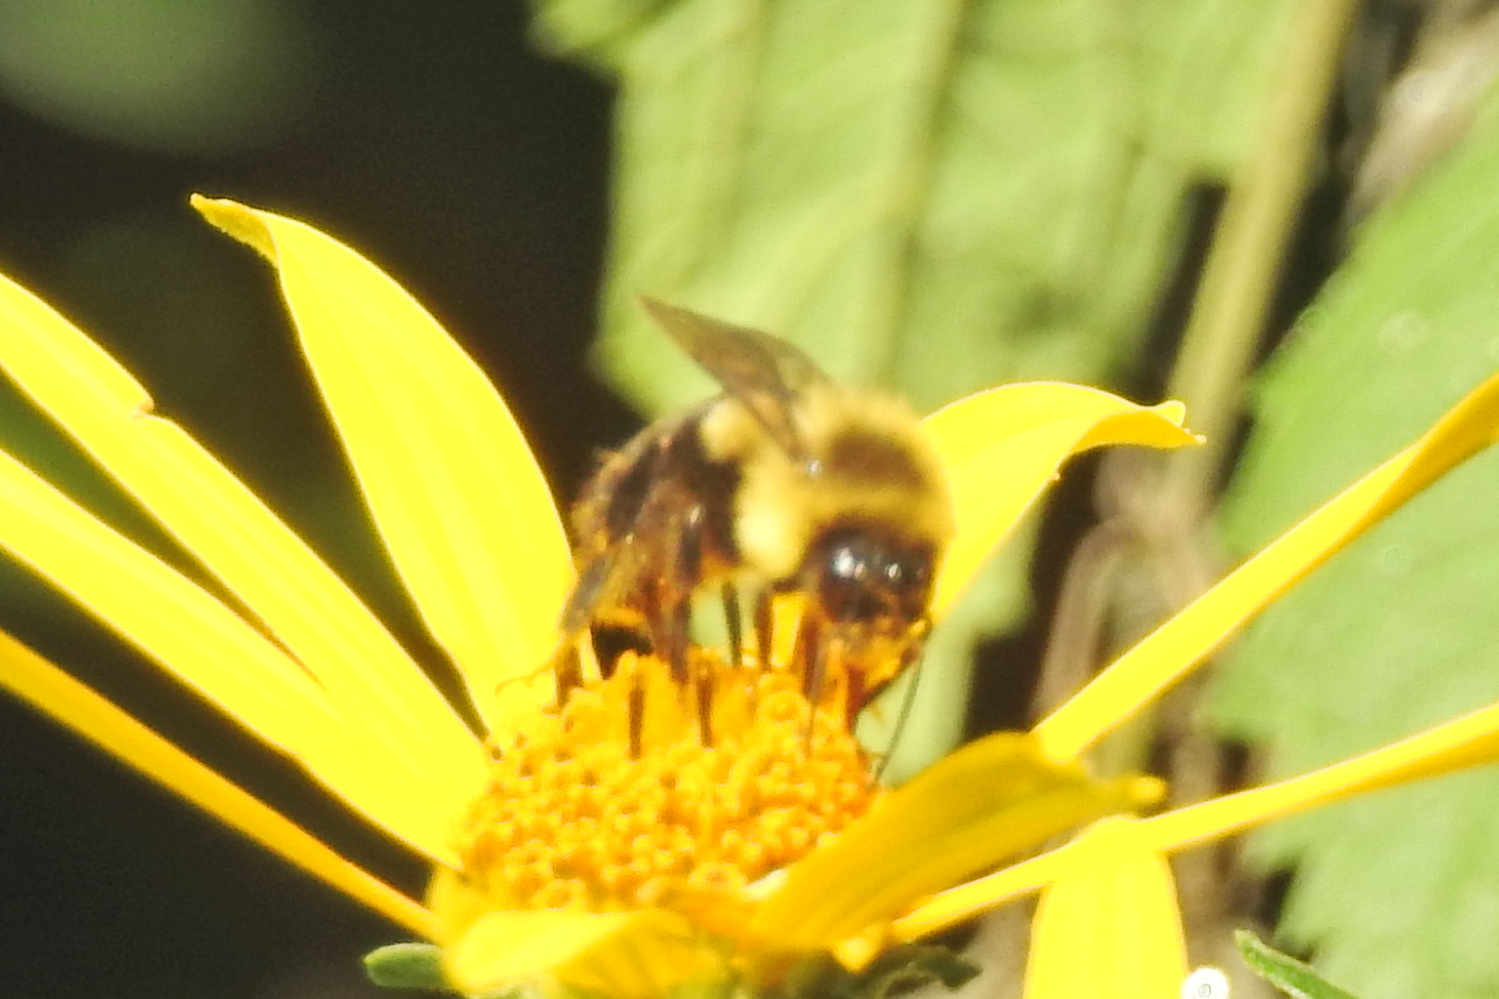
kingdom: Animalia
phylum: Arthropoda
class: Insecta
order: Hymenoptera
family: Apidae
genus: Bombus
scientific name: Bombus impatiens
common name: Common eastern bumble bee
